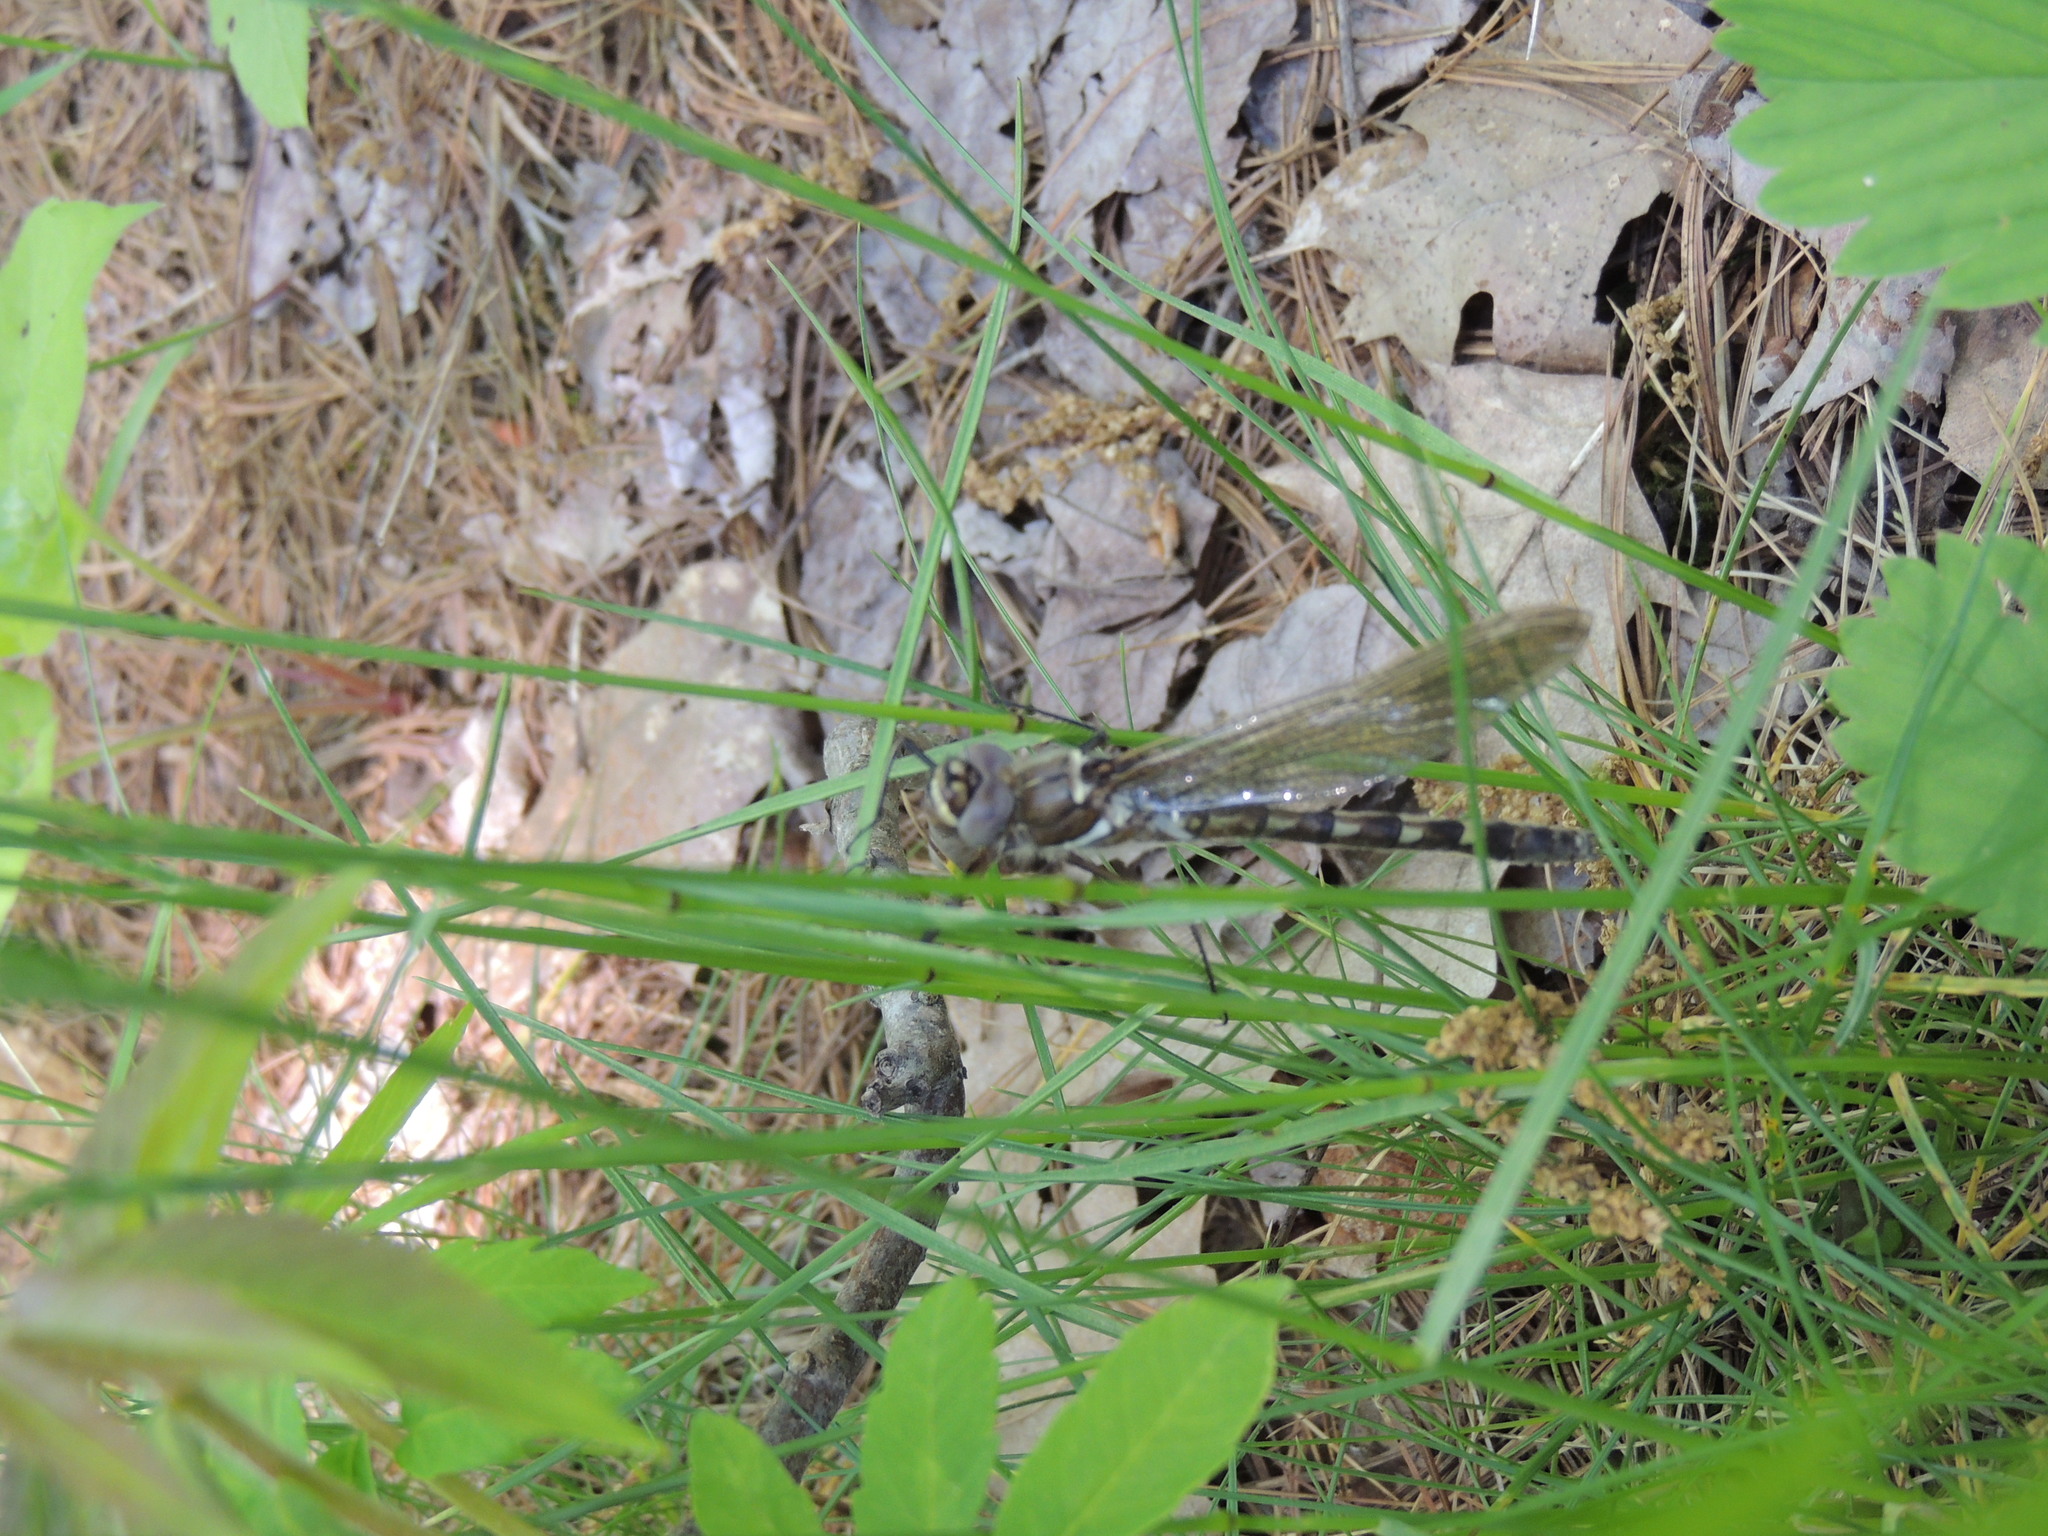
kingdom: Animalia
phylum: Arthropoda
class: Insecta
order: Odonata
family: Macromiidae
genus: Didymops
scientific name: Didymops transversa
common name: Stream cruiser
